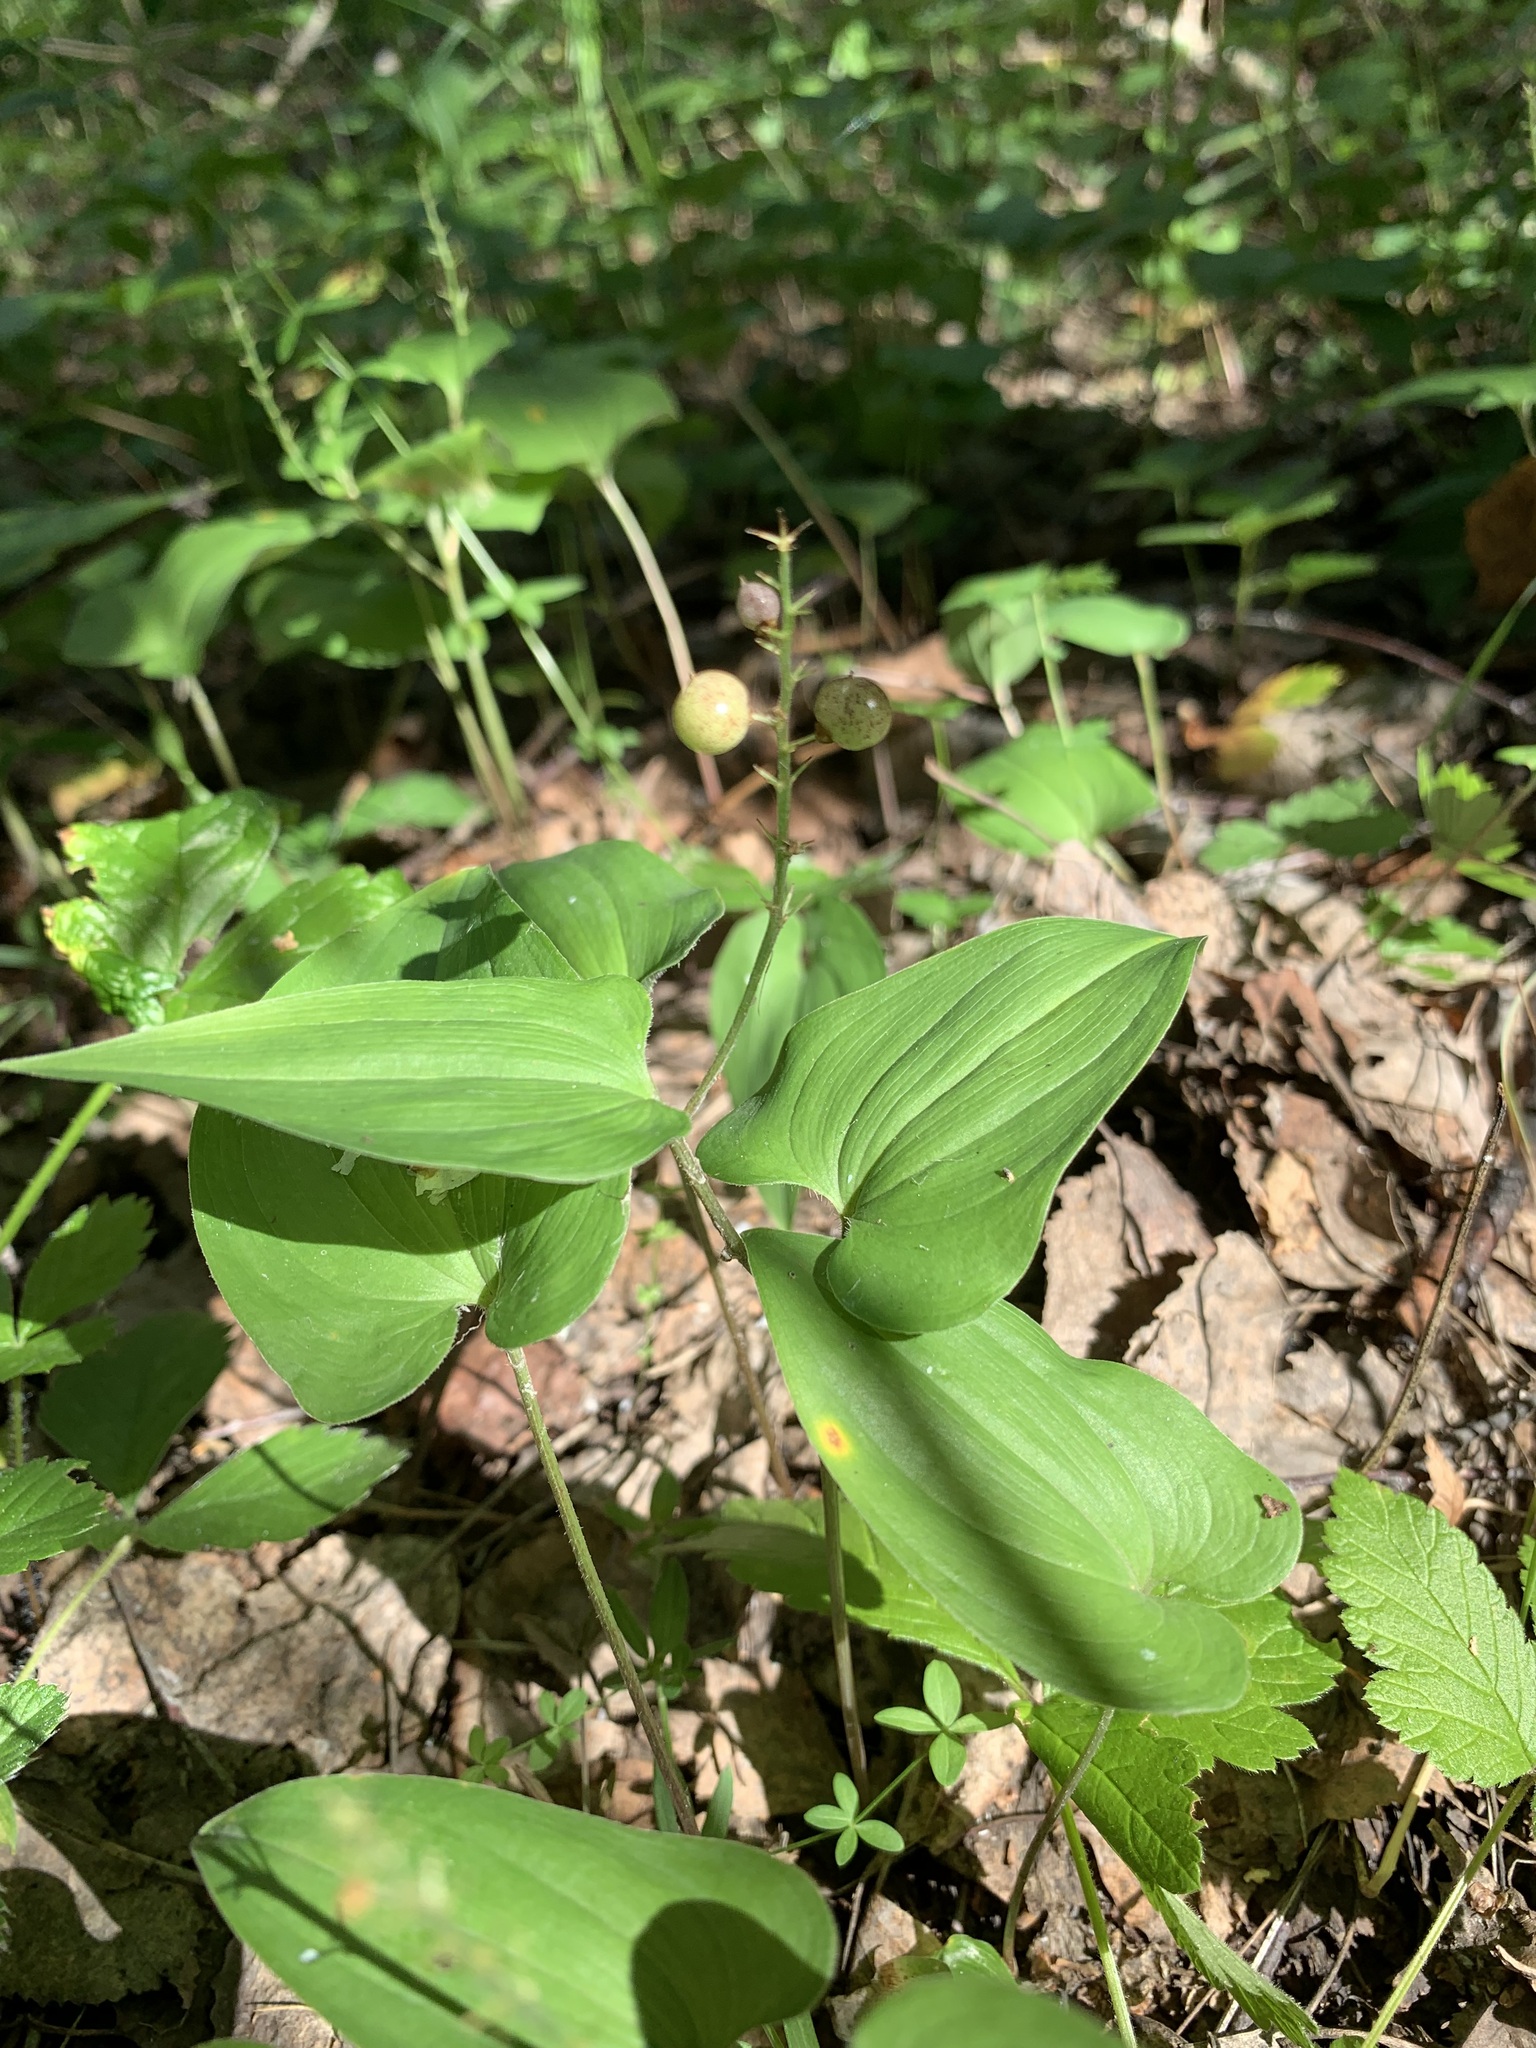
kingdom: Plantae
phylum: Tracheophyta
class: Liliopsida
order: Asparagales
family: Asparagaceae
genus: Maianthemum
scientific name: Maianthemum bifolium
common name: May lily
